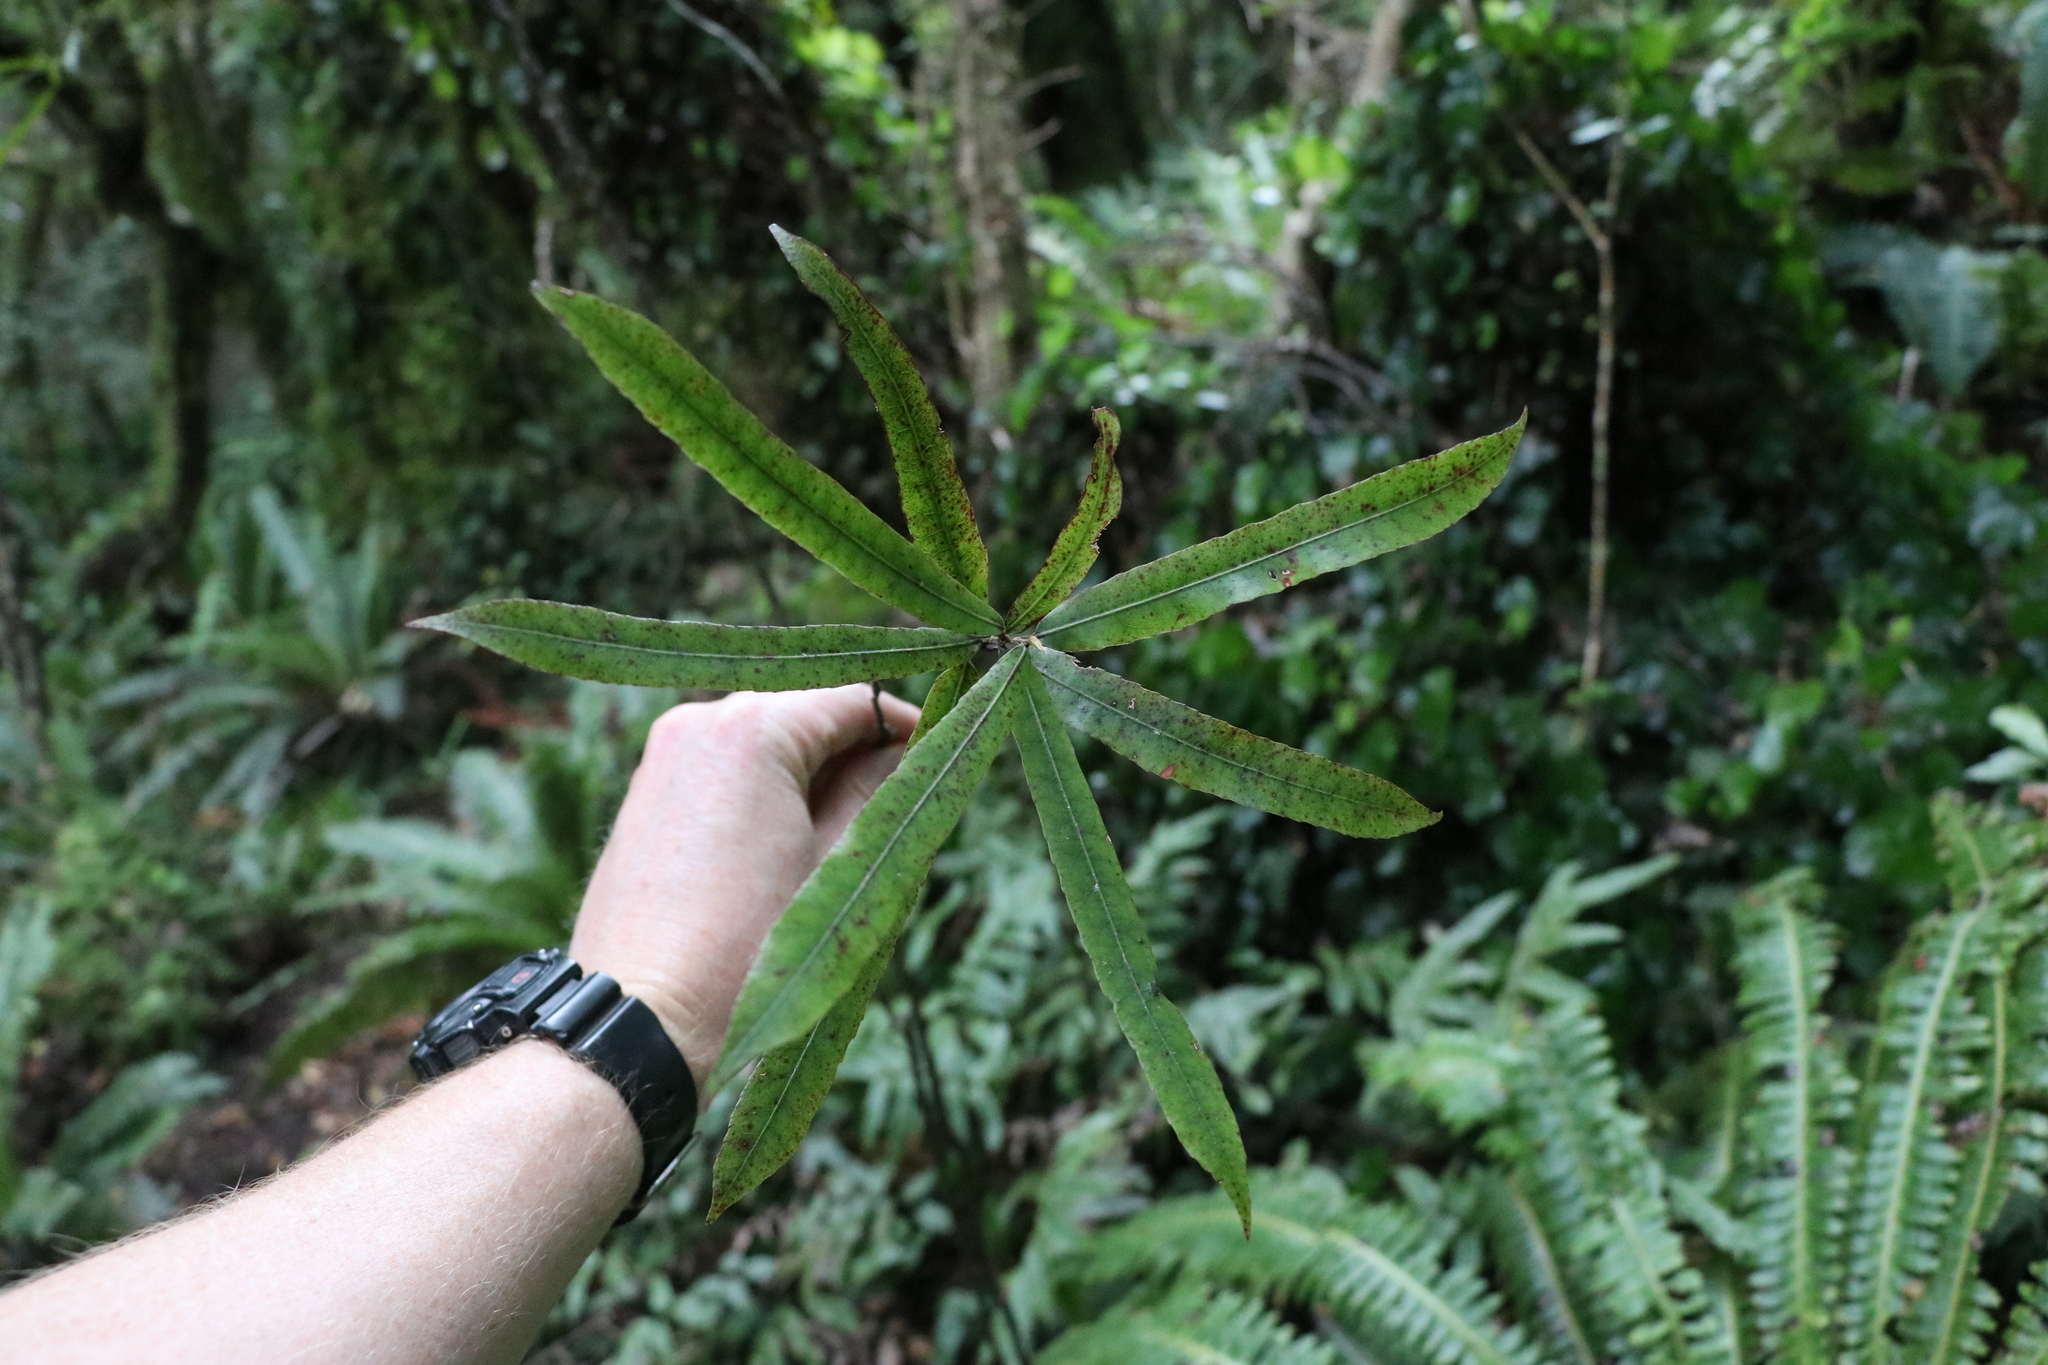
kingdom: Plantae
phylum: Tracheophyta
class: Magnoliopsida
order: Ericales
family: Primulaceae
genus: Myrsine
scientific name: Myrsine salicina
